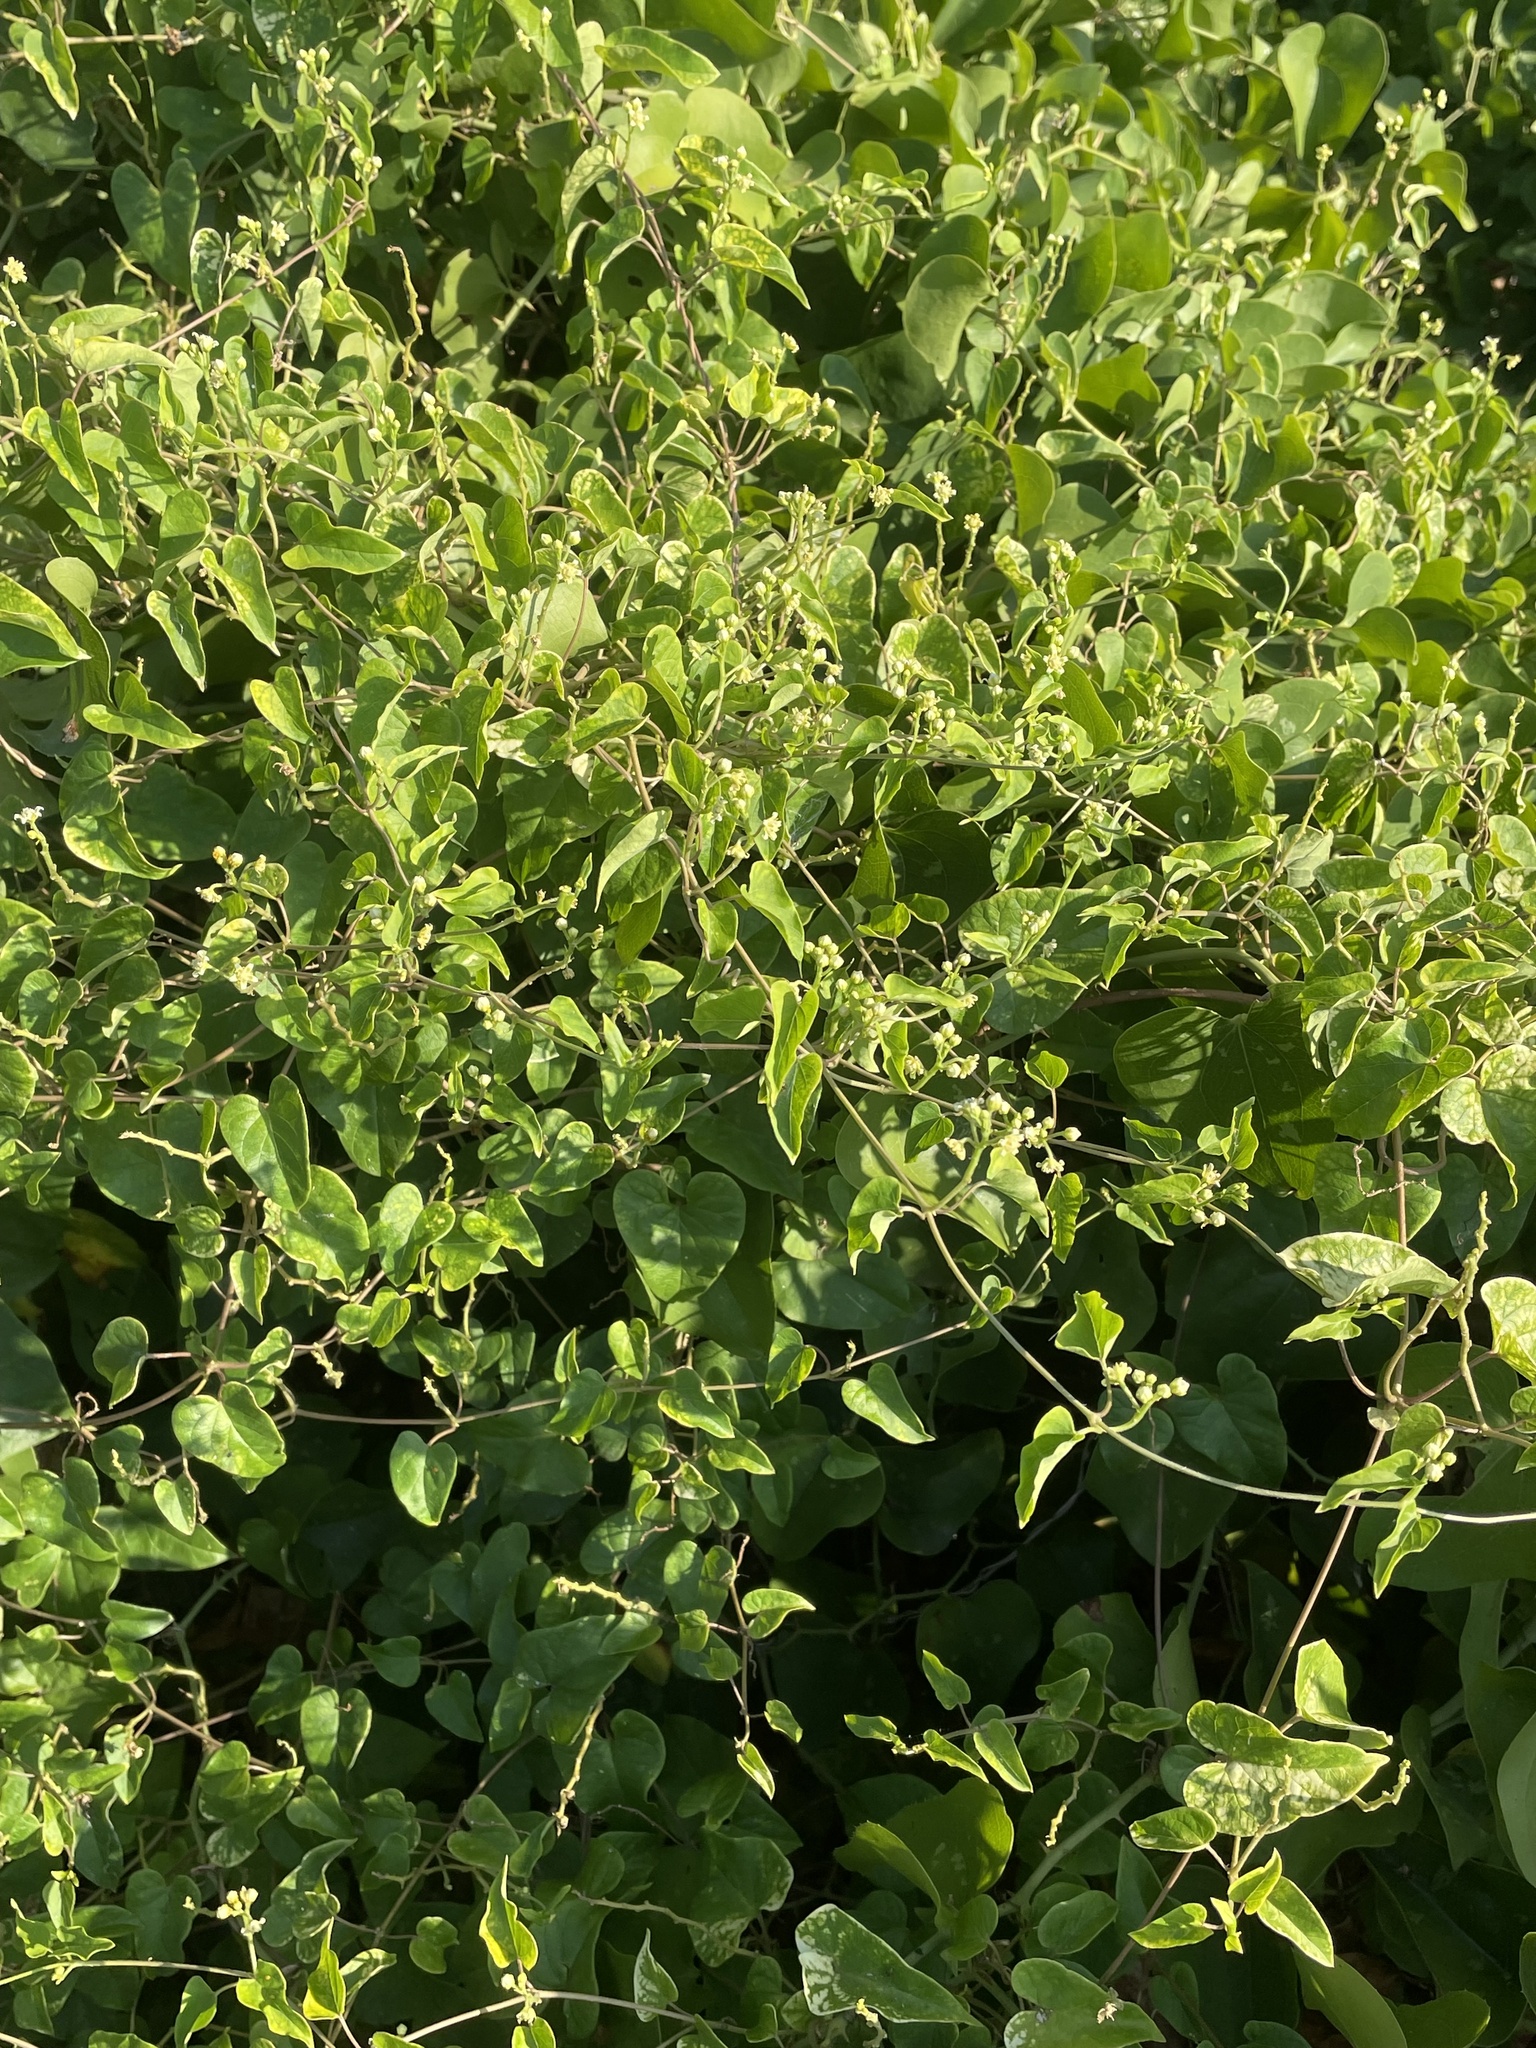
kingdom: Plantae
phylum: Tracheophyta
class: Magnoliopsida
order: Gentianales
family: Apocynaceae
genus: Cynanchum
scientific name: Cynanchum racemosum
